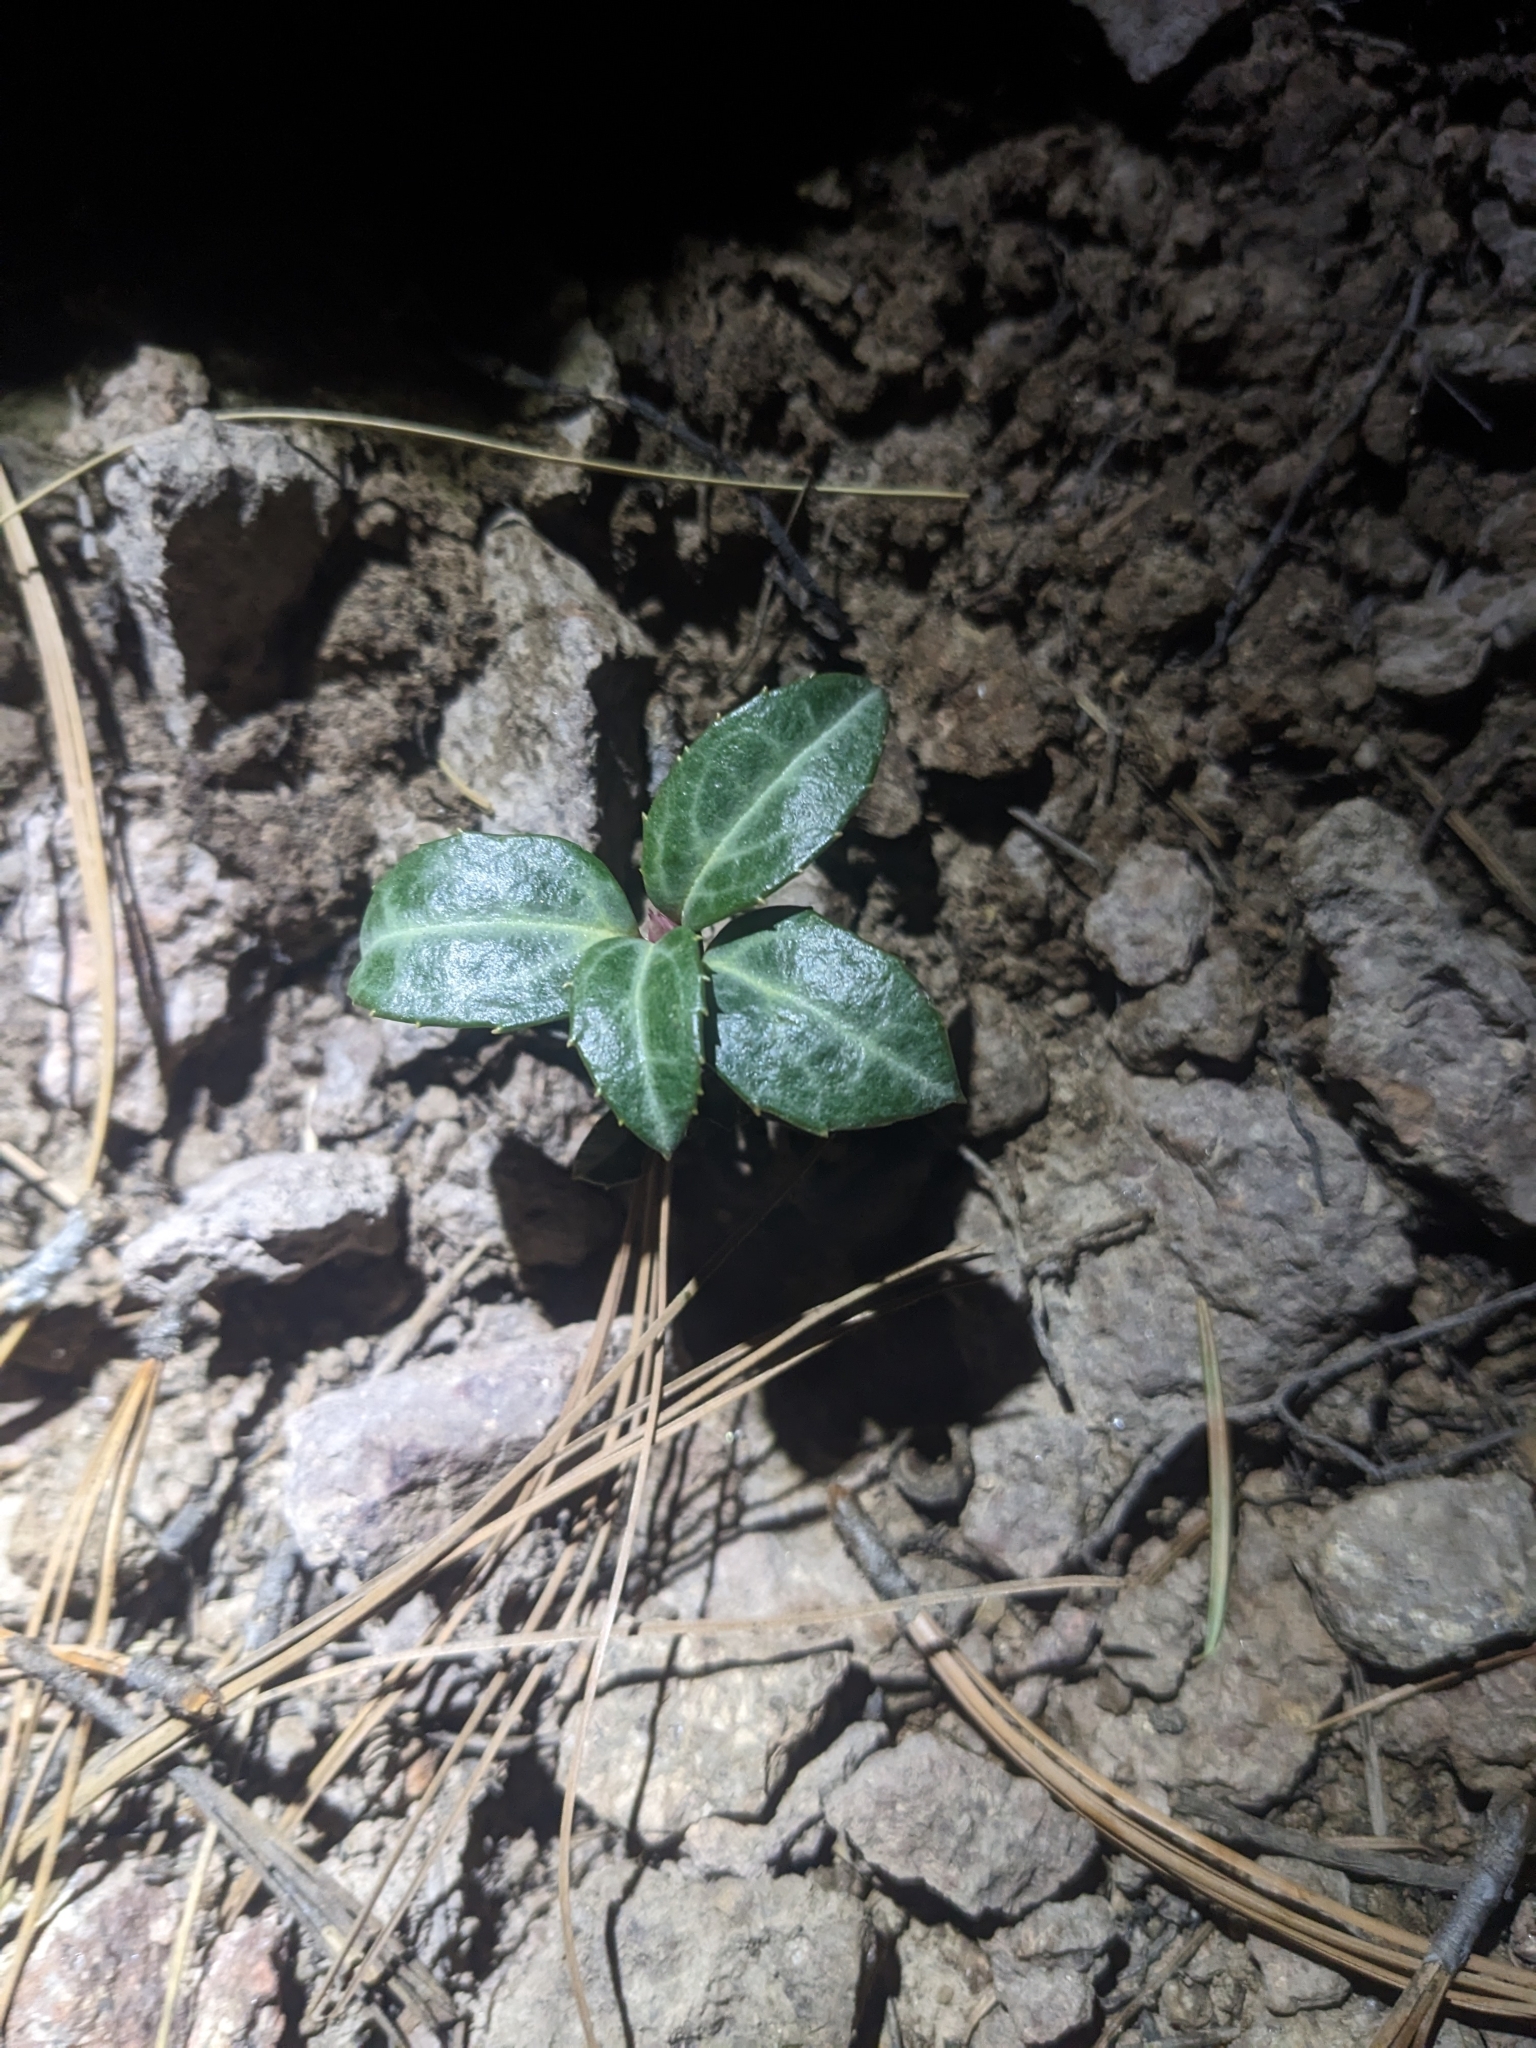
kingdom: Plantae
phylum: Tracheophyta
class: Magnoliopsida
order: Ericales
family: Ericaceae
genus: Chimaphila
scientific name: Chimaphila maculata
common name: Spotted pipsissewa
